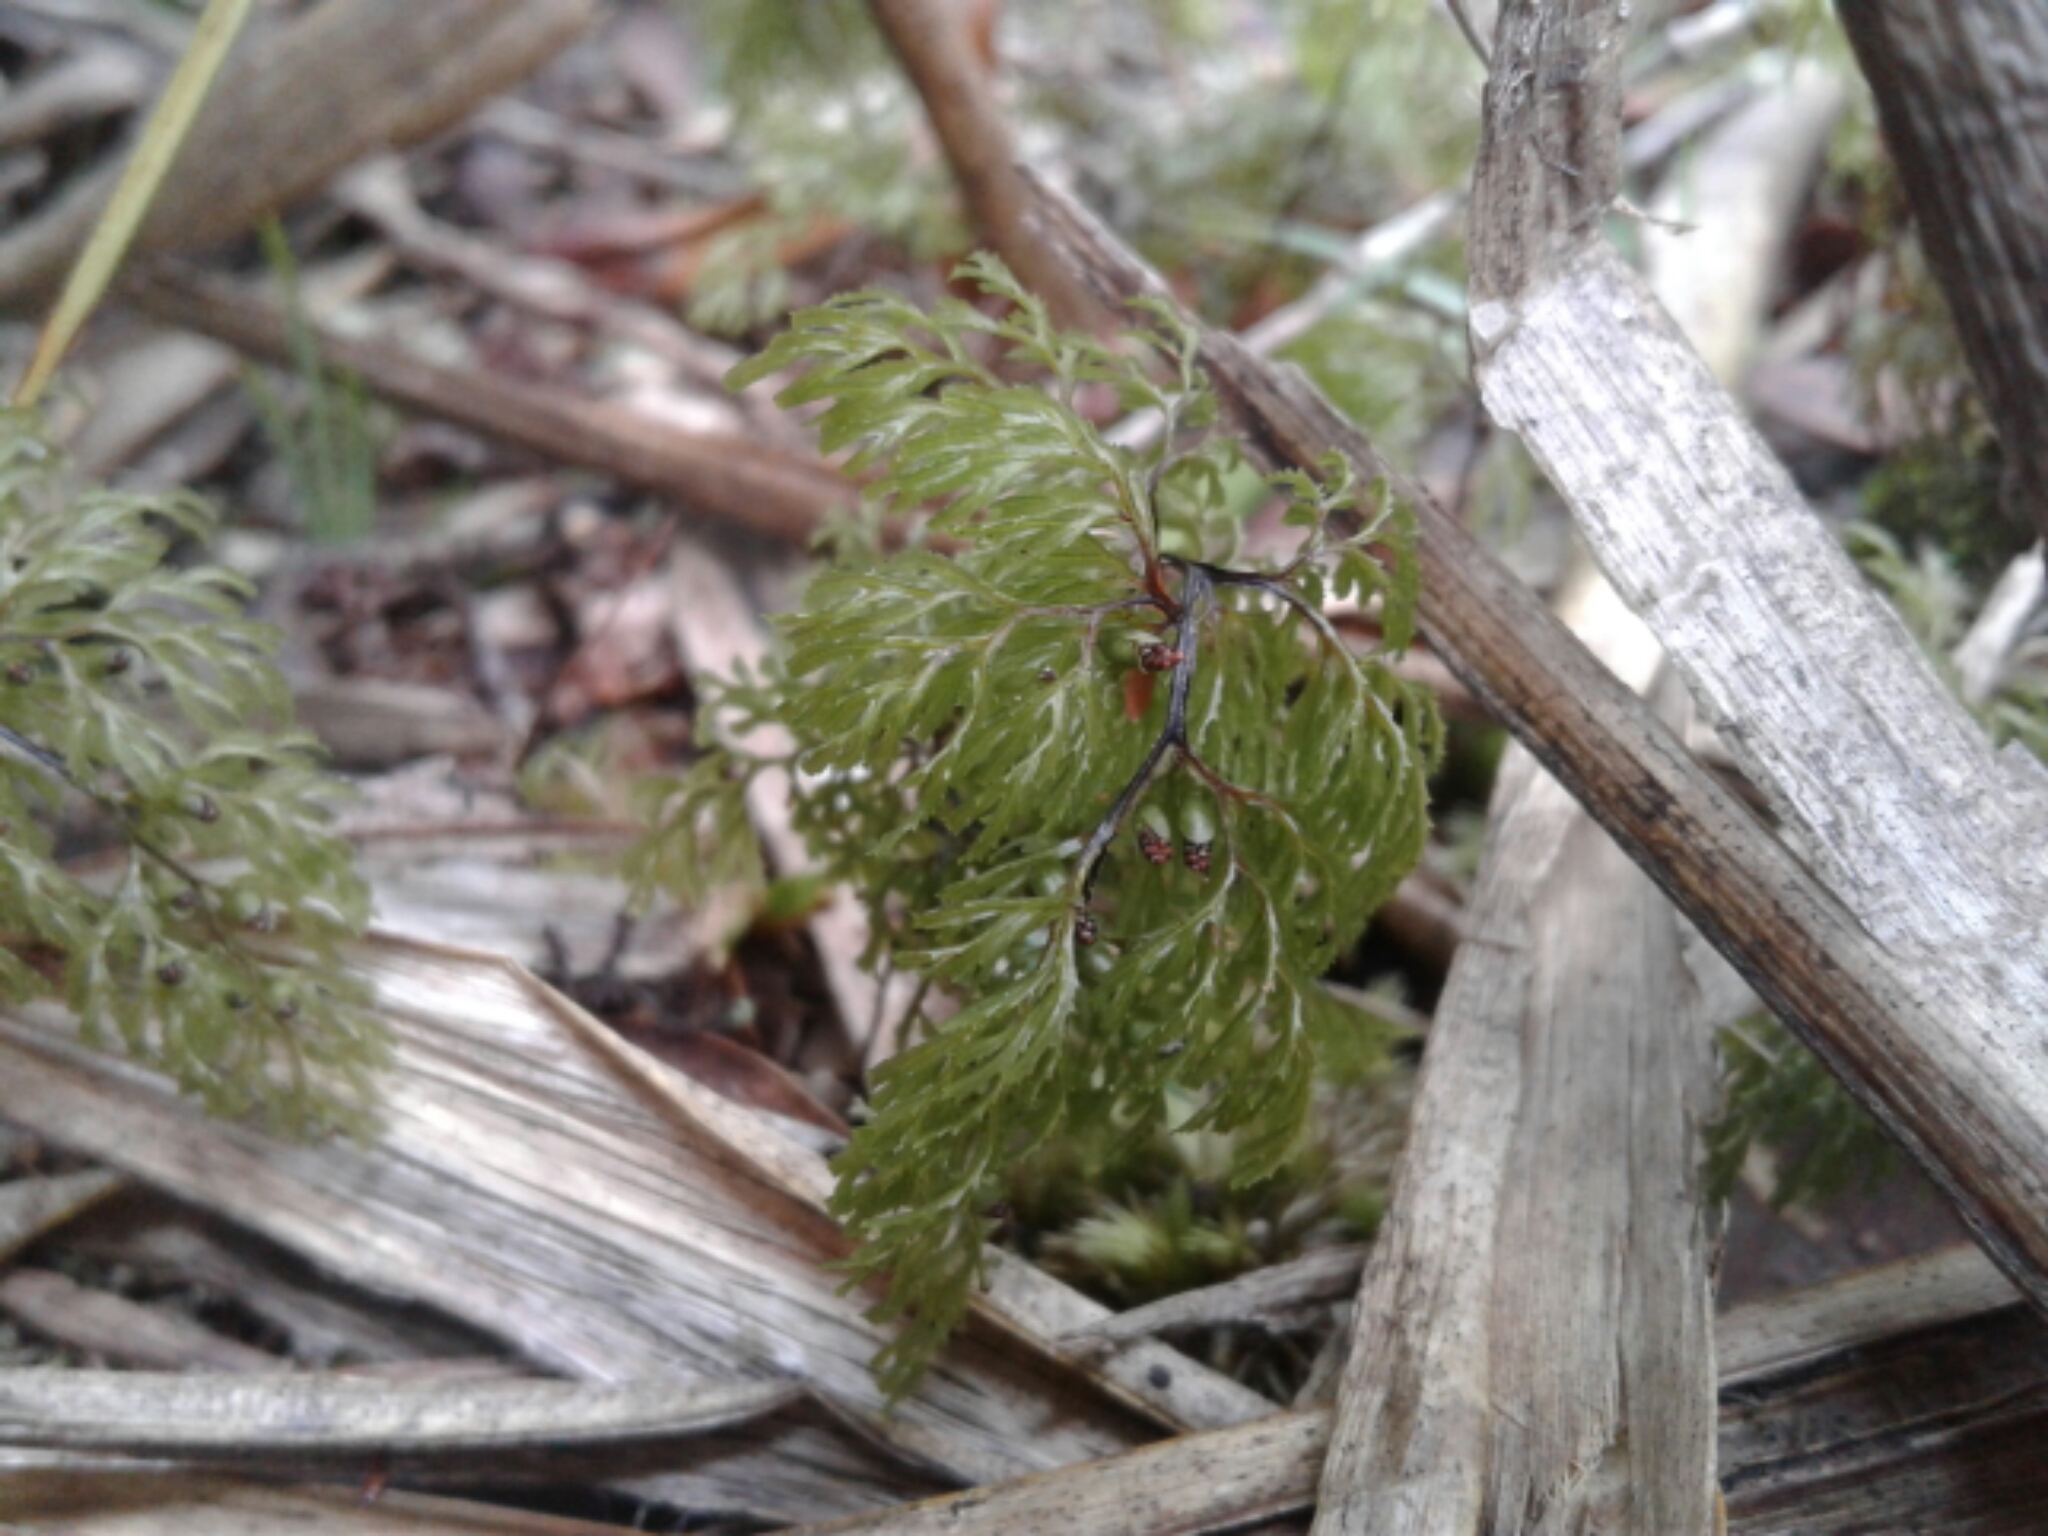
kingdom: Plantae
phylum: Tracheophyta
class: Polypodiopsida
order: Hymenophyllales
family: Hymenophyllaceae
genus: Hymenophyllum
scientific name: Hymenophyllum multifidum
